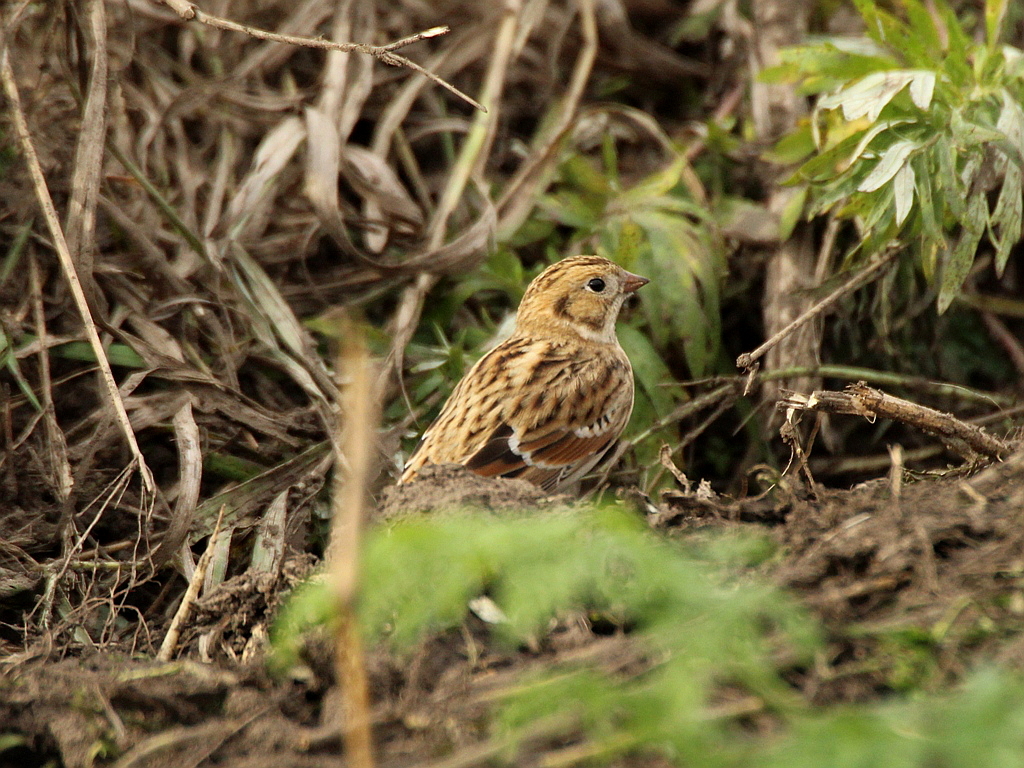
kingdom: Animalia
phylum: Chordata
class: Aves
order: Passeriformes
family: Calcariidae
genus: Calcarius
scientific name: Calcarius lapponicus
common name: Lapland longspur
